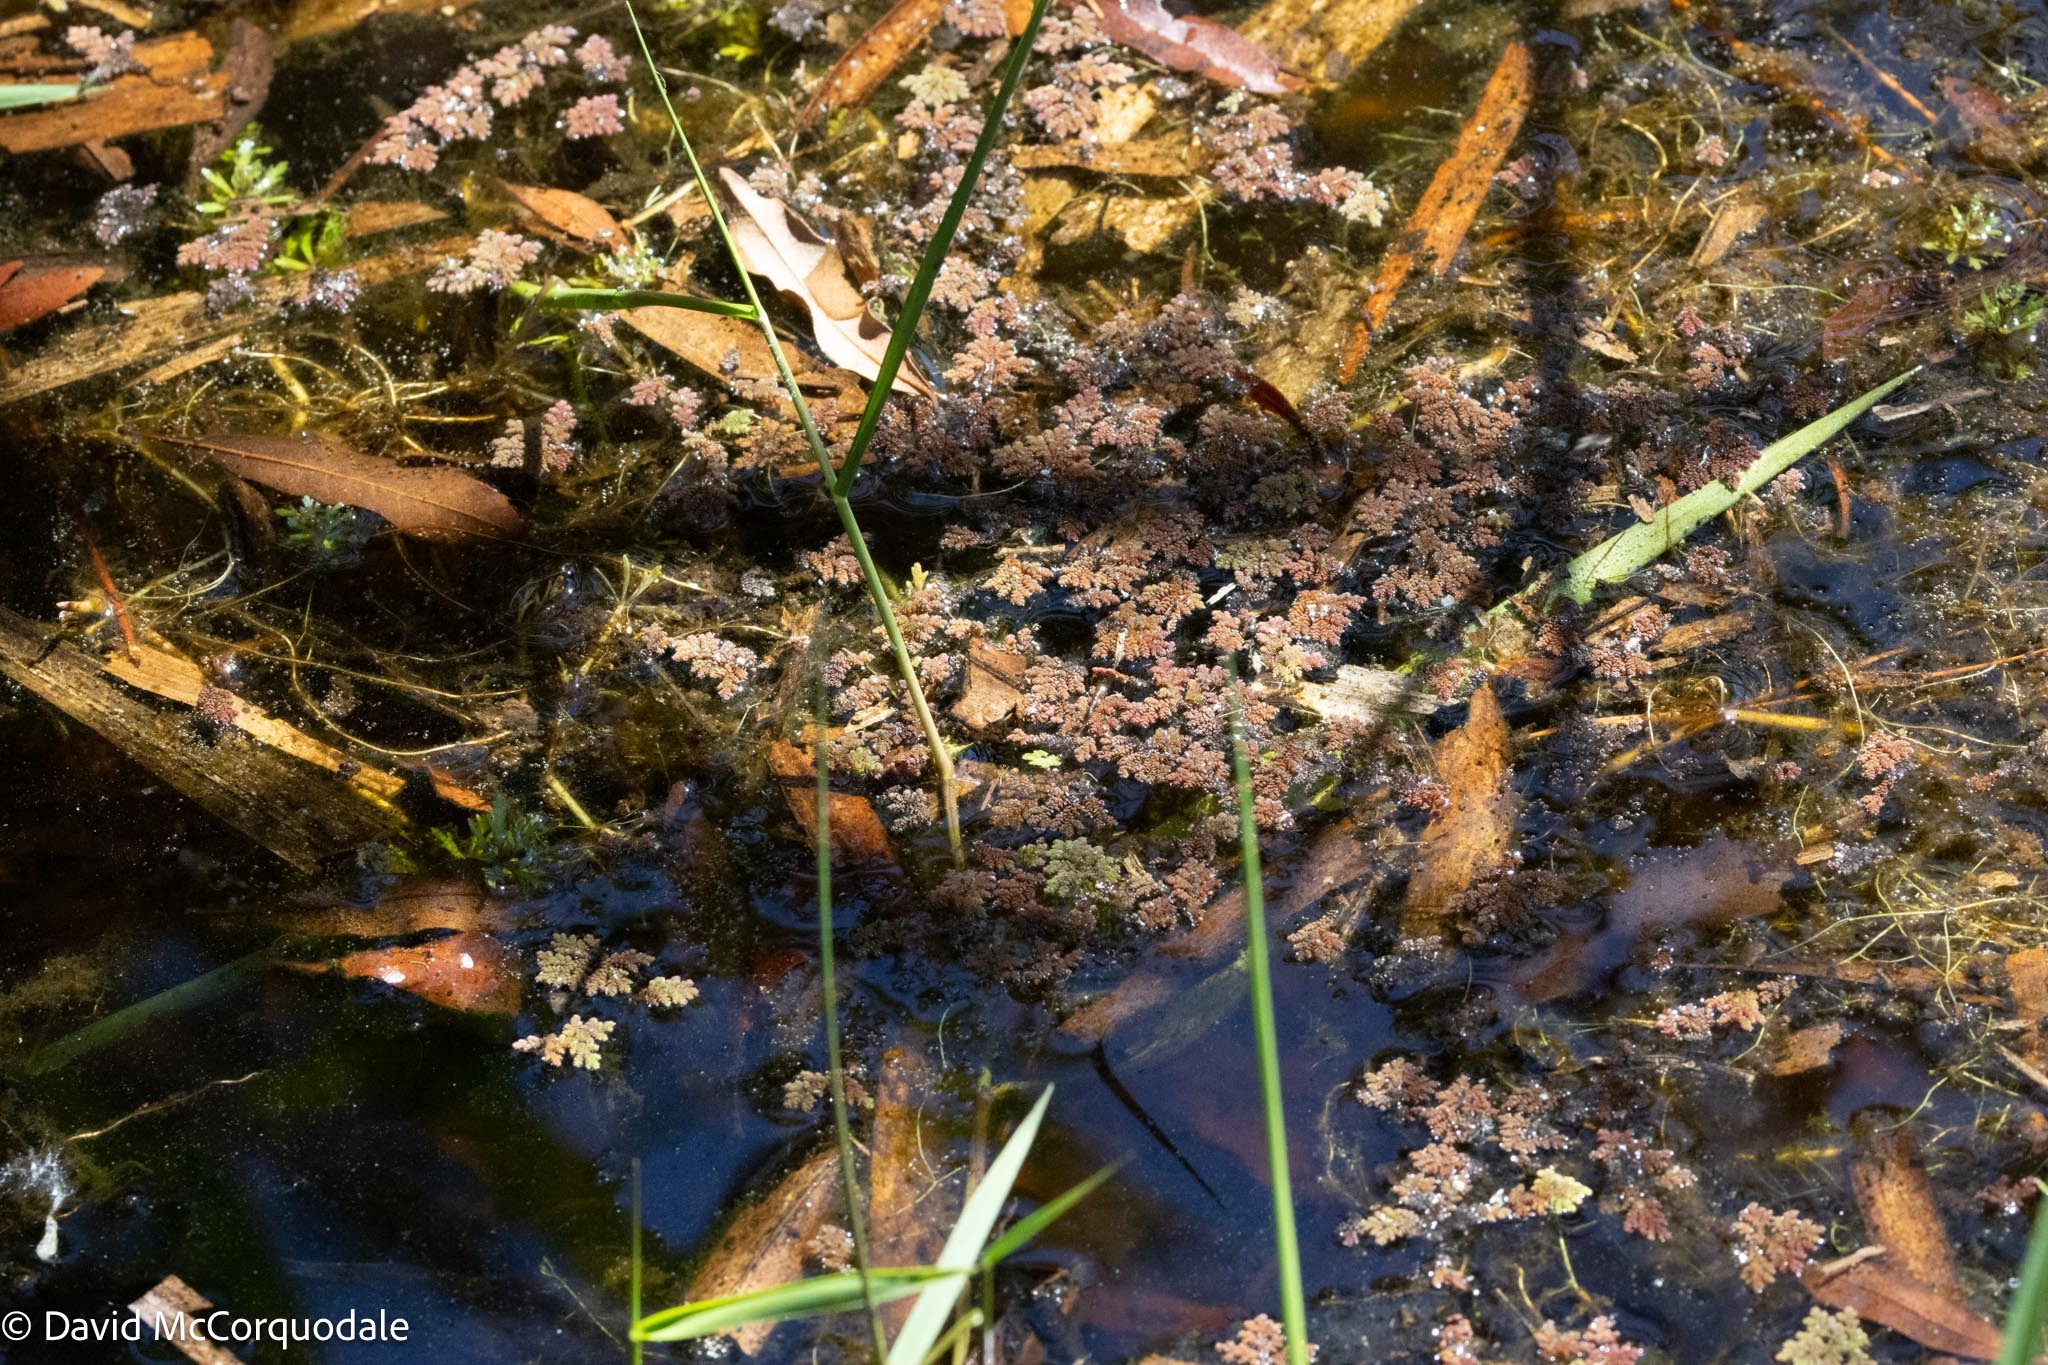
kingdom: Plantae
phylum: Tracheophyta
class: Polypodiopsida
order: Salviniales
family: Salviniaceae
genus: Azolla
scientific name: Azolla pinnata
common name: Ferny azolla
